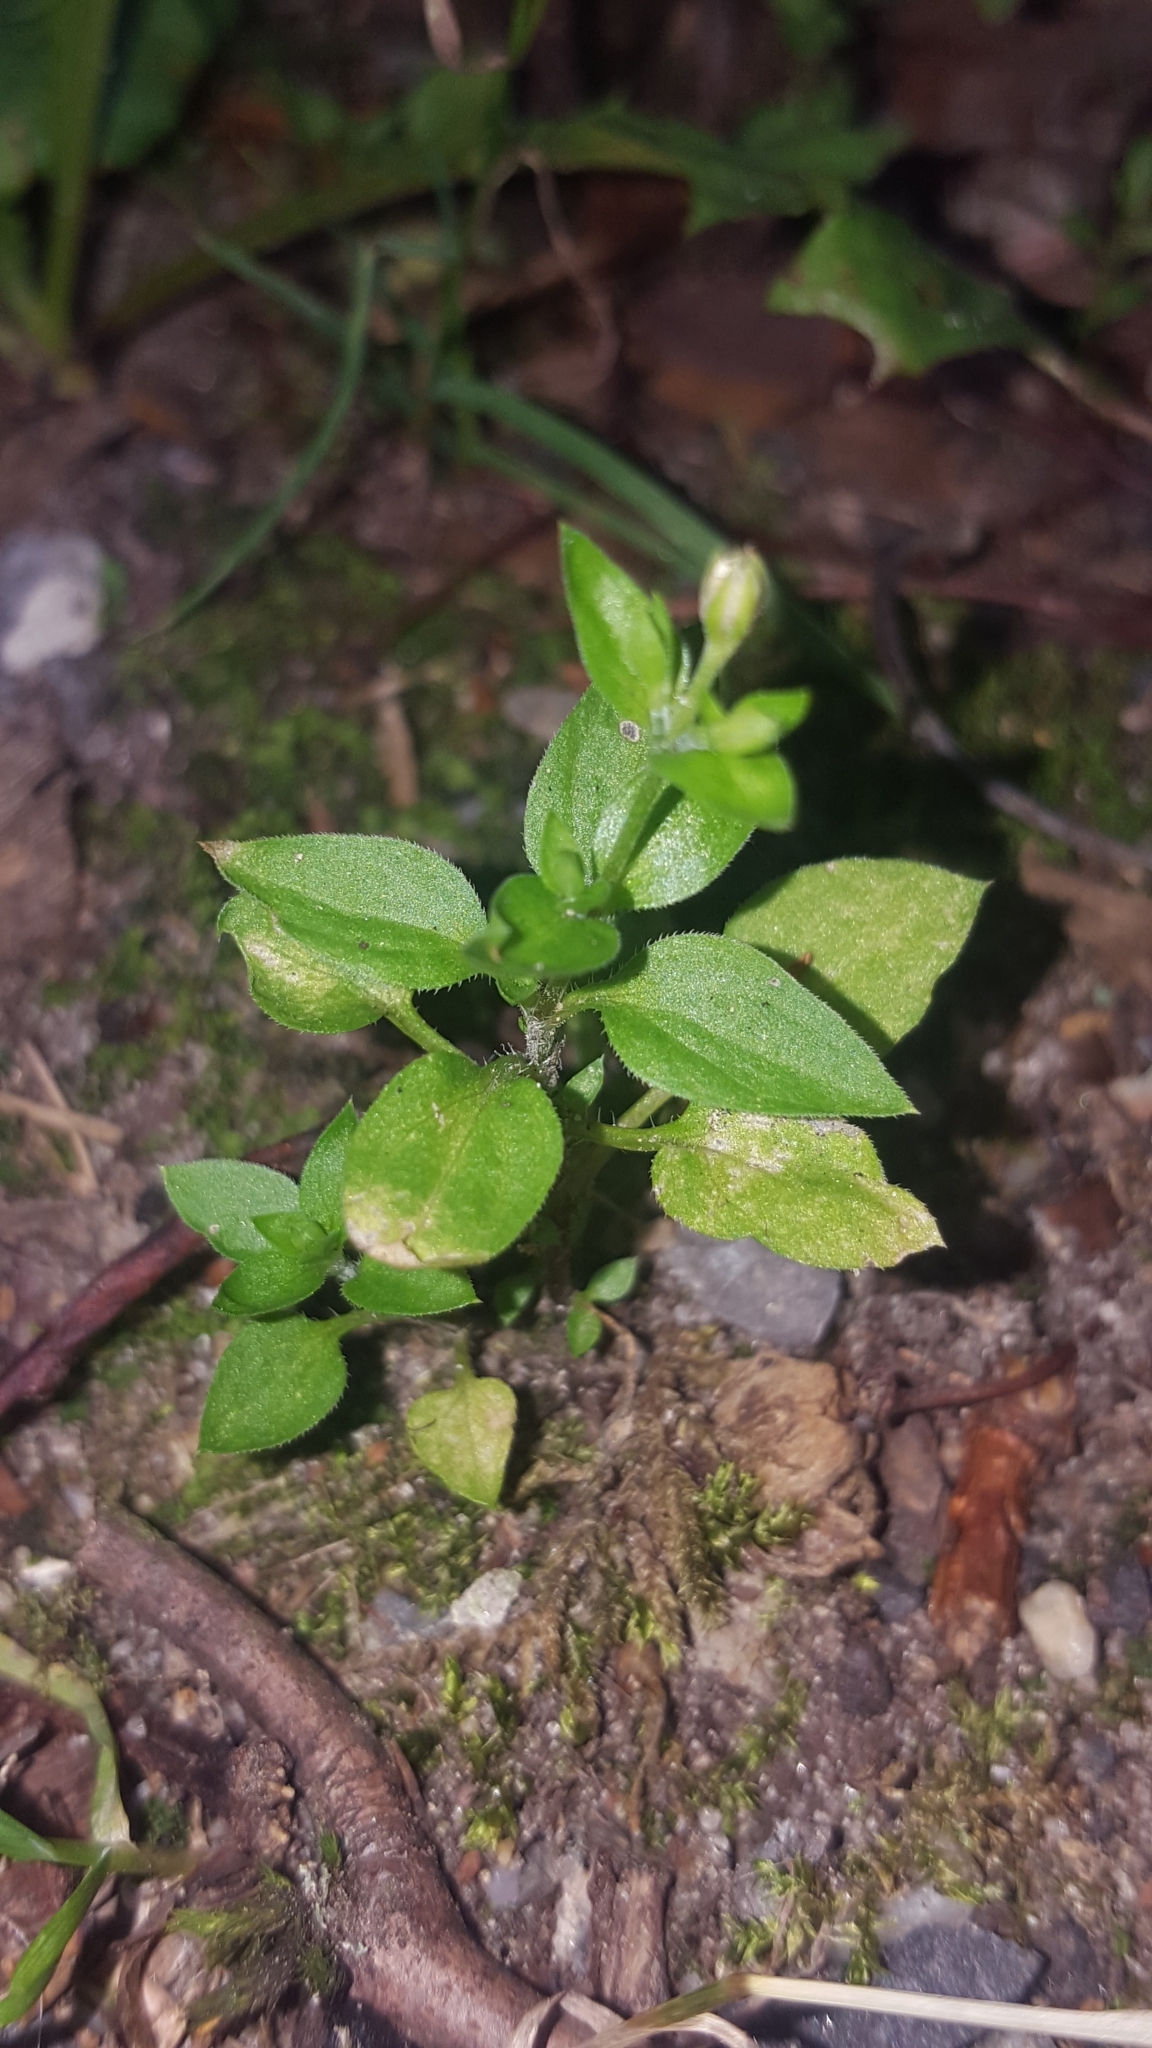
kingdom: Plantae
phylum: Tracheophyta
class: Magnoliopsida
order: Caryophyllales
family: Caryophyllaceae
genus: Moehringia
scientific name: Moehringia trinervia
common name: Three-nerved sandwort
